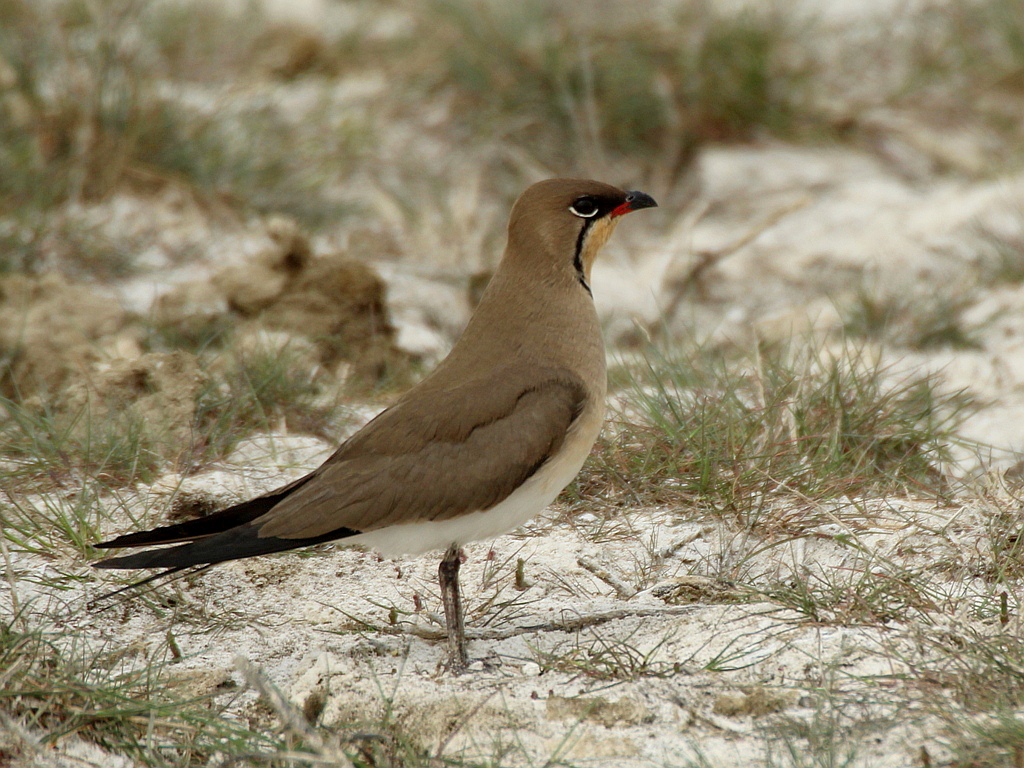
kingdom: Animalia
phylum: Chordata
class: Aves
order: Charadriiformes
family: Glareolidae
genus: Glareola
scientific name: Glareola pratincola
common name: Collared pratincole
